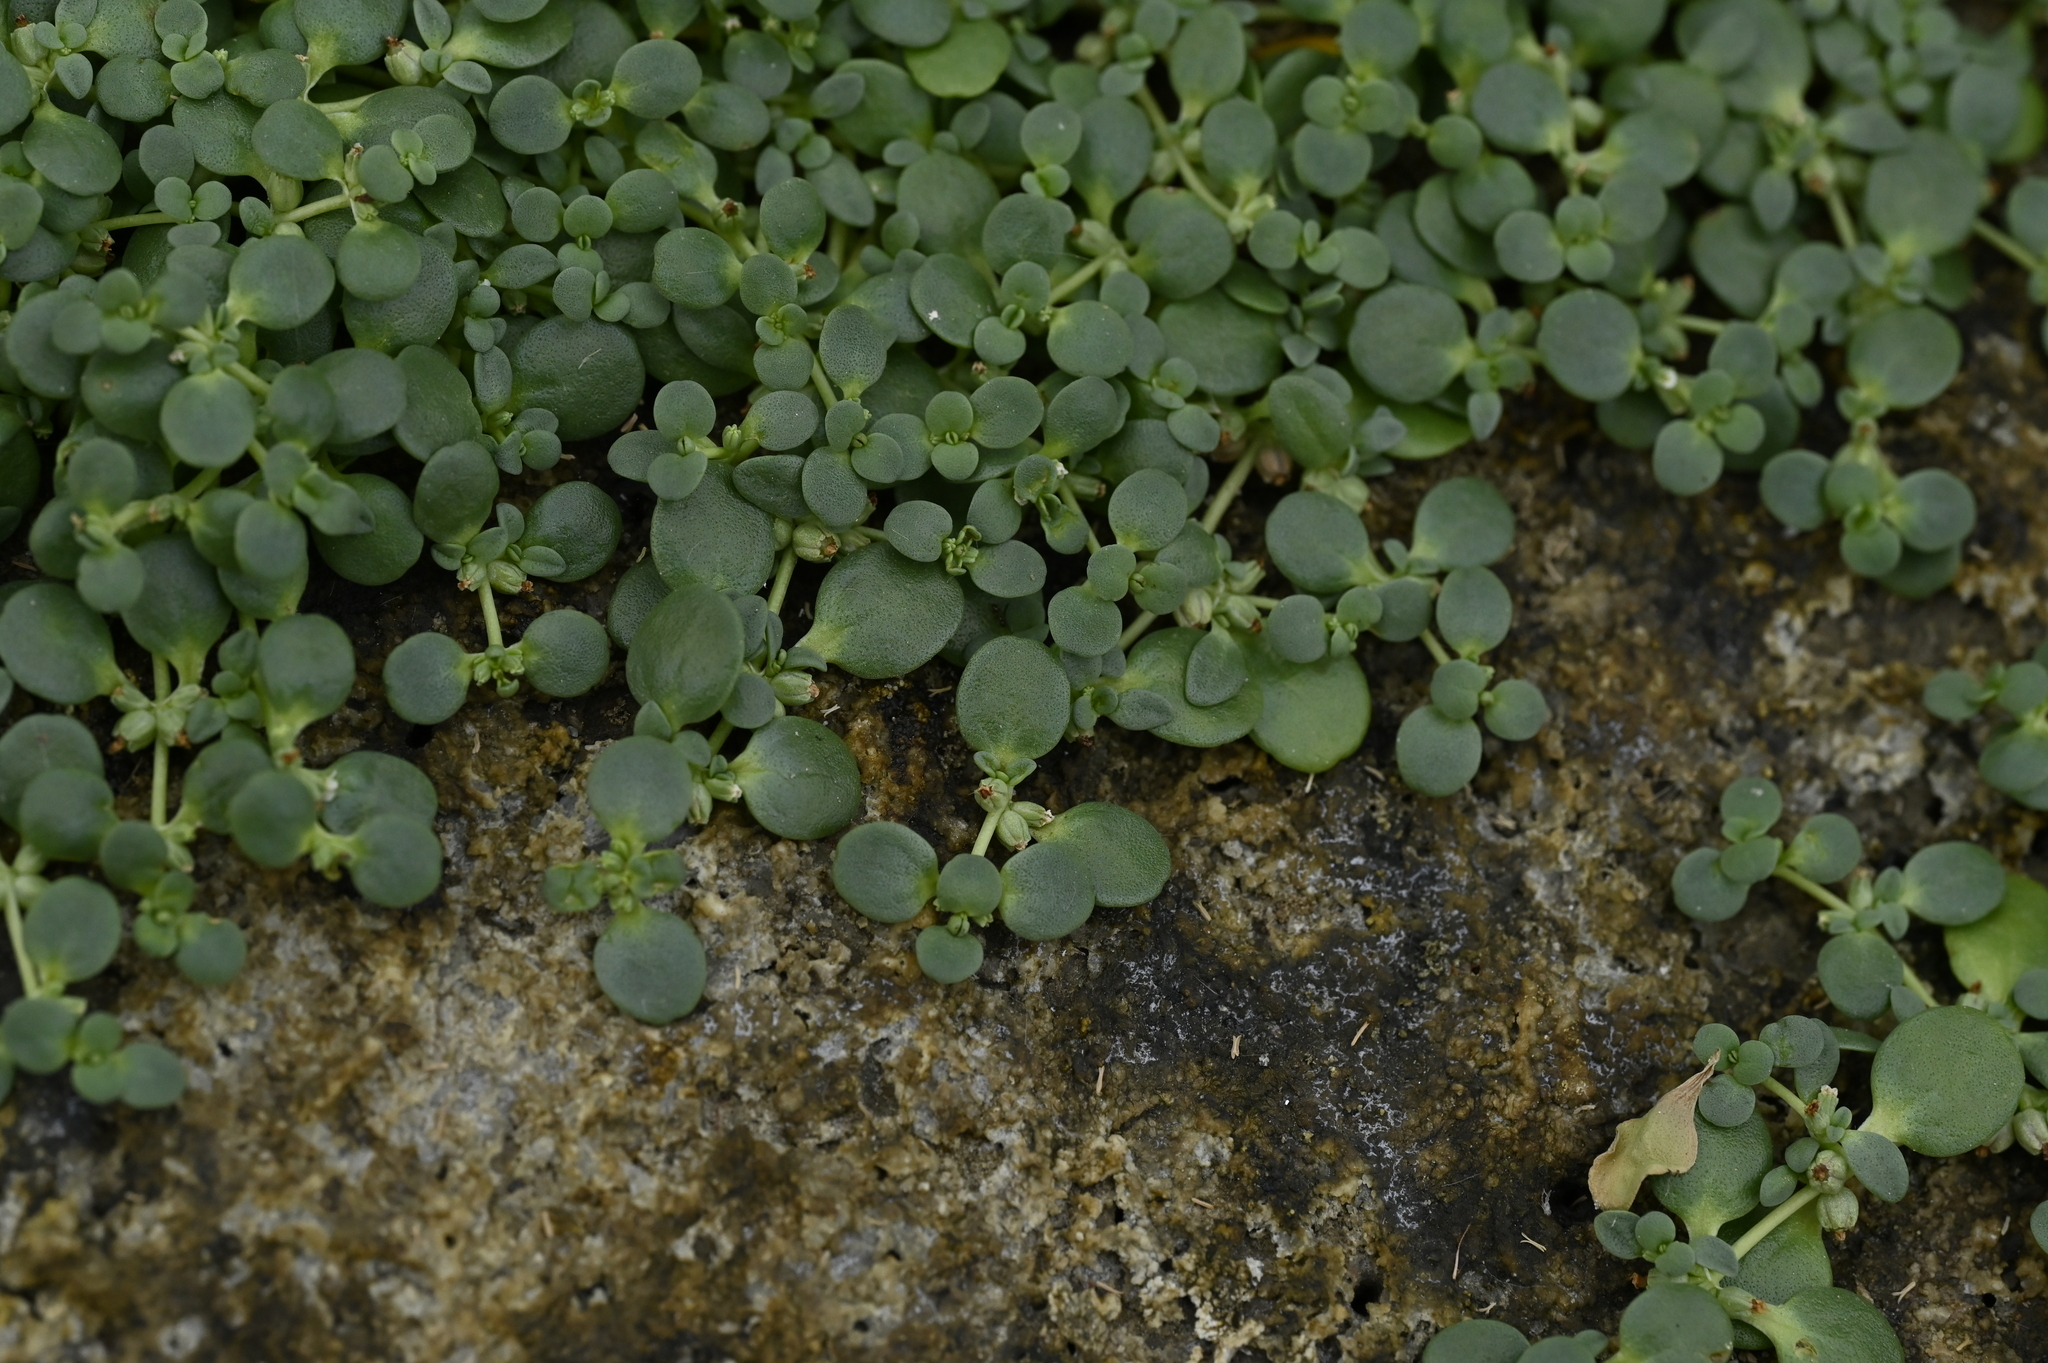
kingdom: Plantae
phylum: Tracheophyta
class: Magnoliopsida
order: Lamiales
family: Phrymaceae
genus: Peplidium
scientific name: Peplidium maritimum
